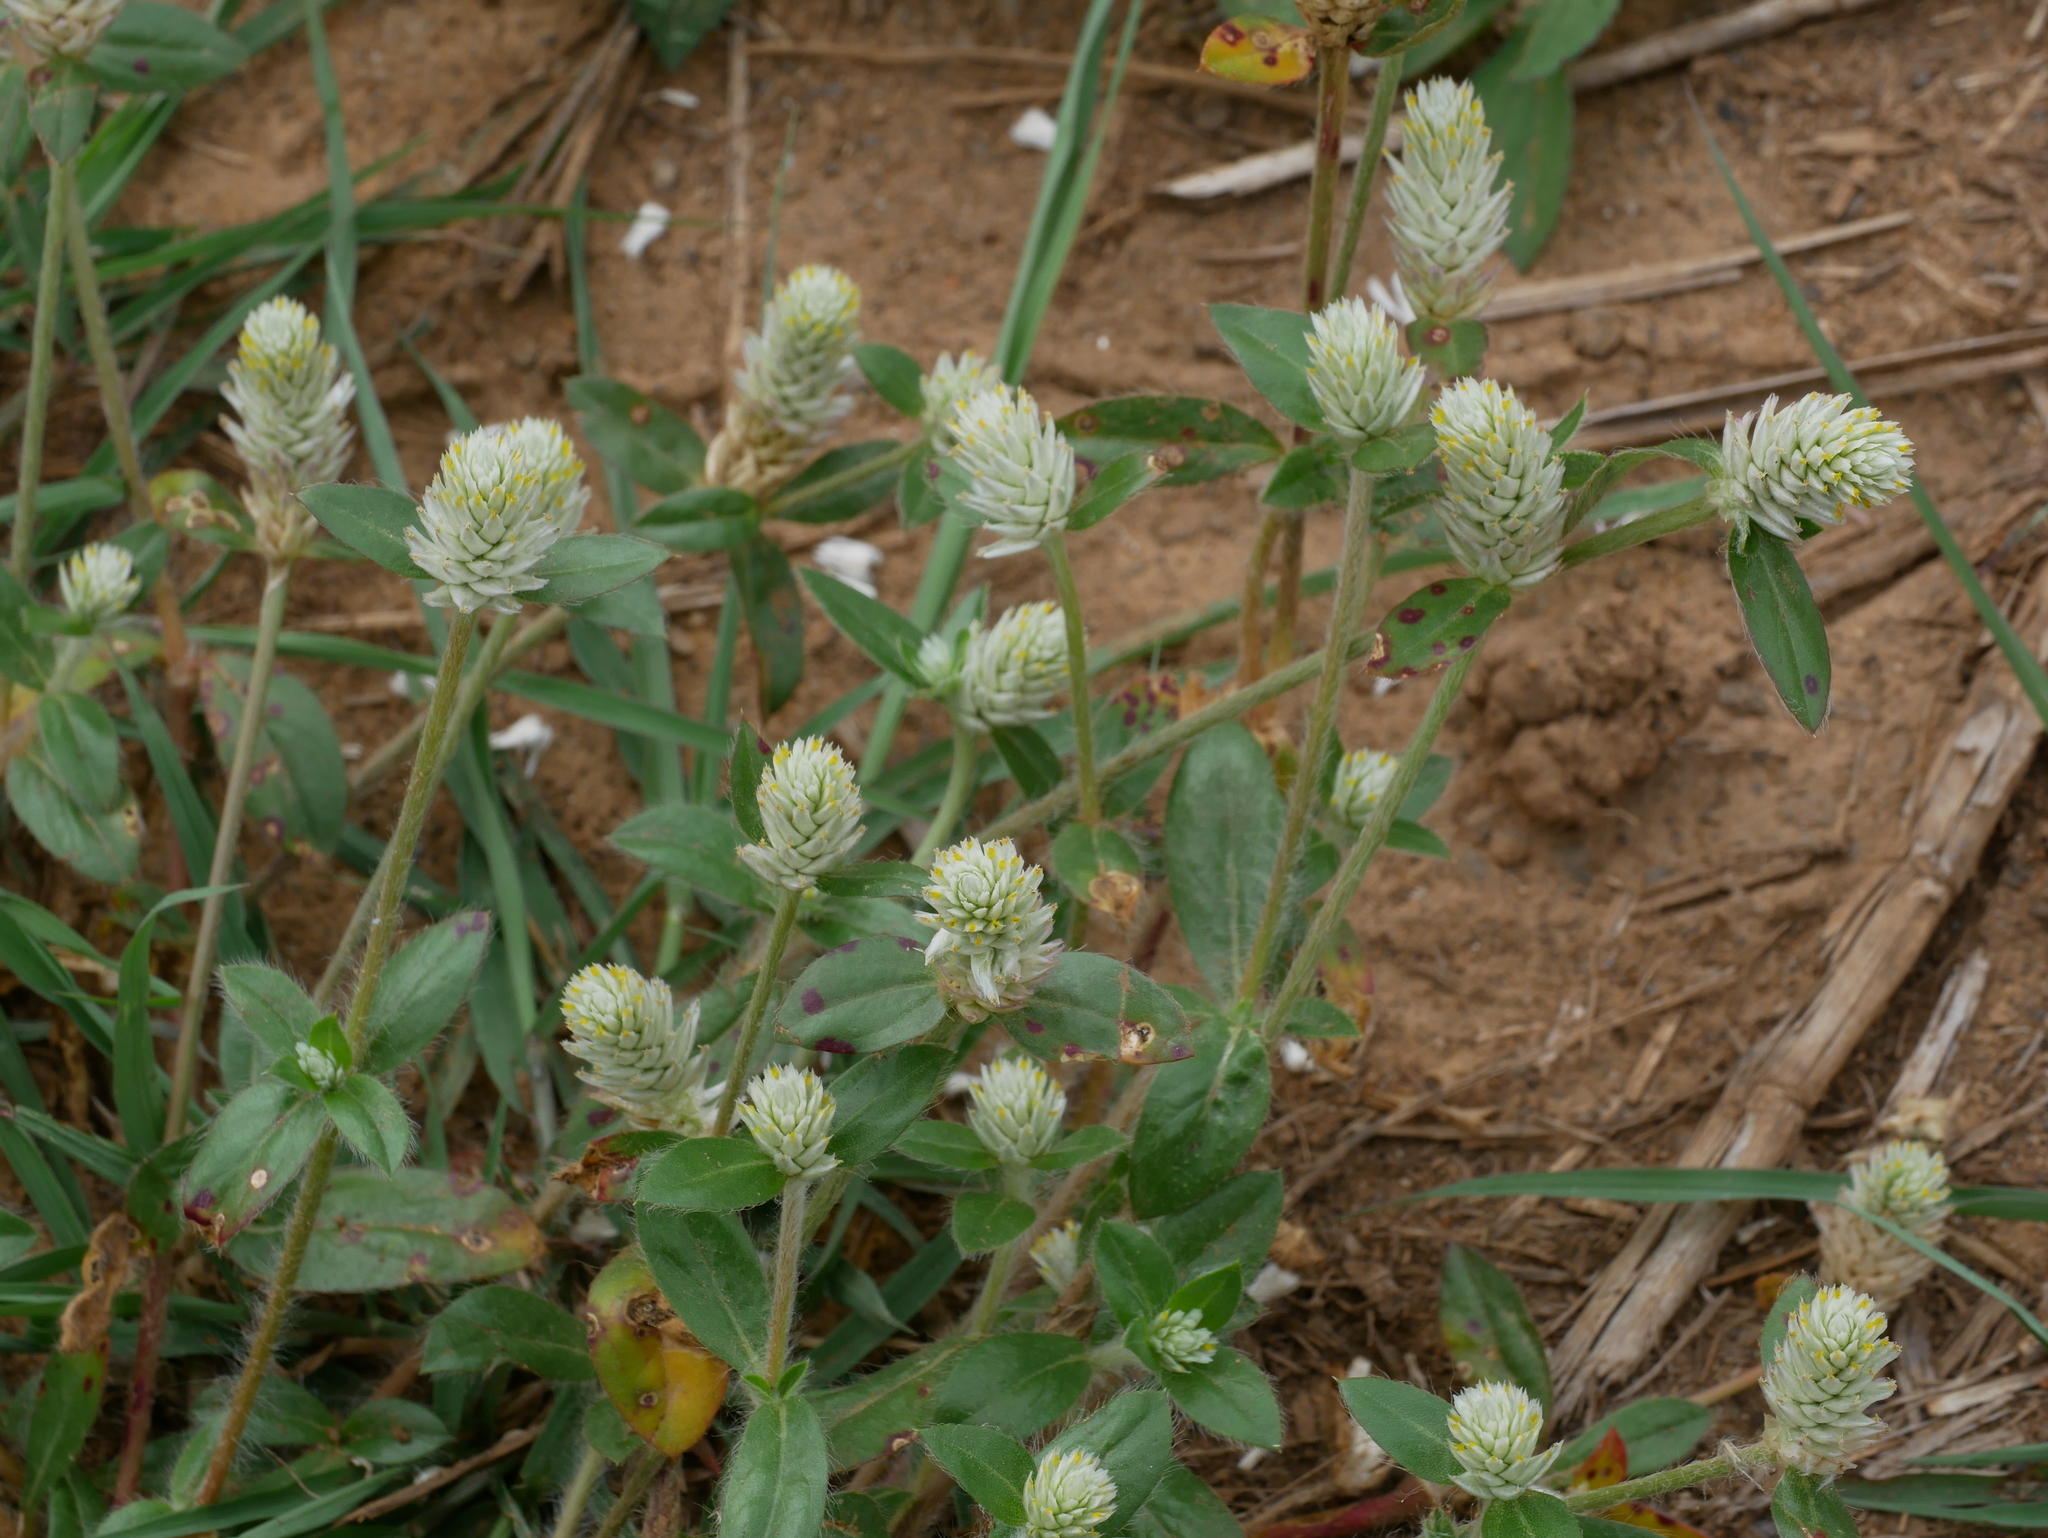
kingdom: Plantae
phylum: Tracheophyta
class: Magnoliopsida
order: Caryophyllales
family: Amaranthaceae
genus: Gomphrena
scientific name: Gomphrena celosioides
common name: Gomphrena-weed
